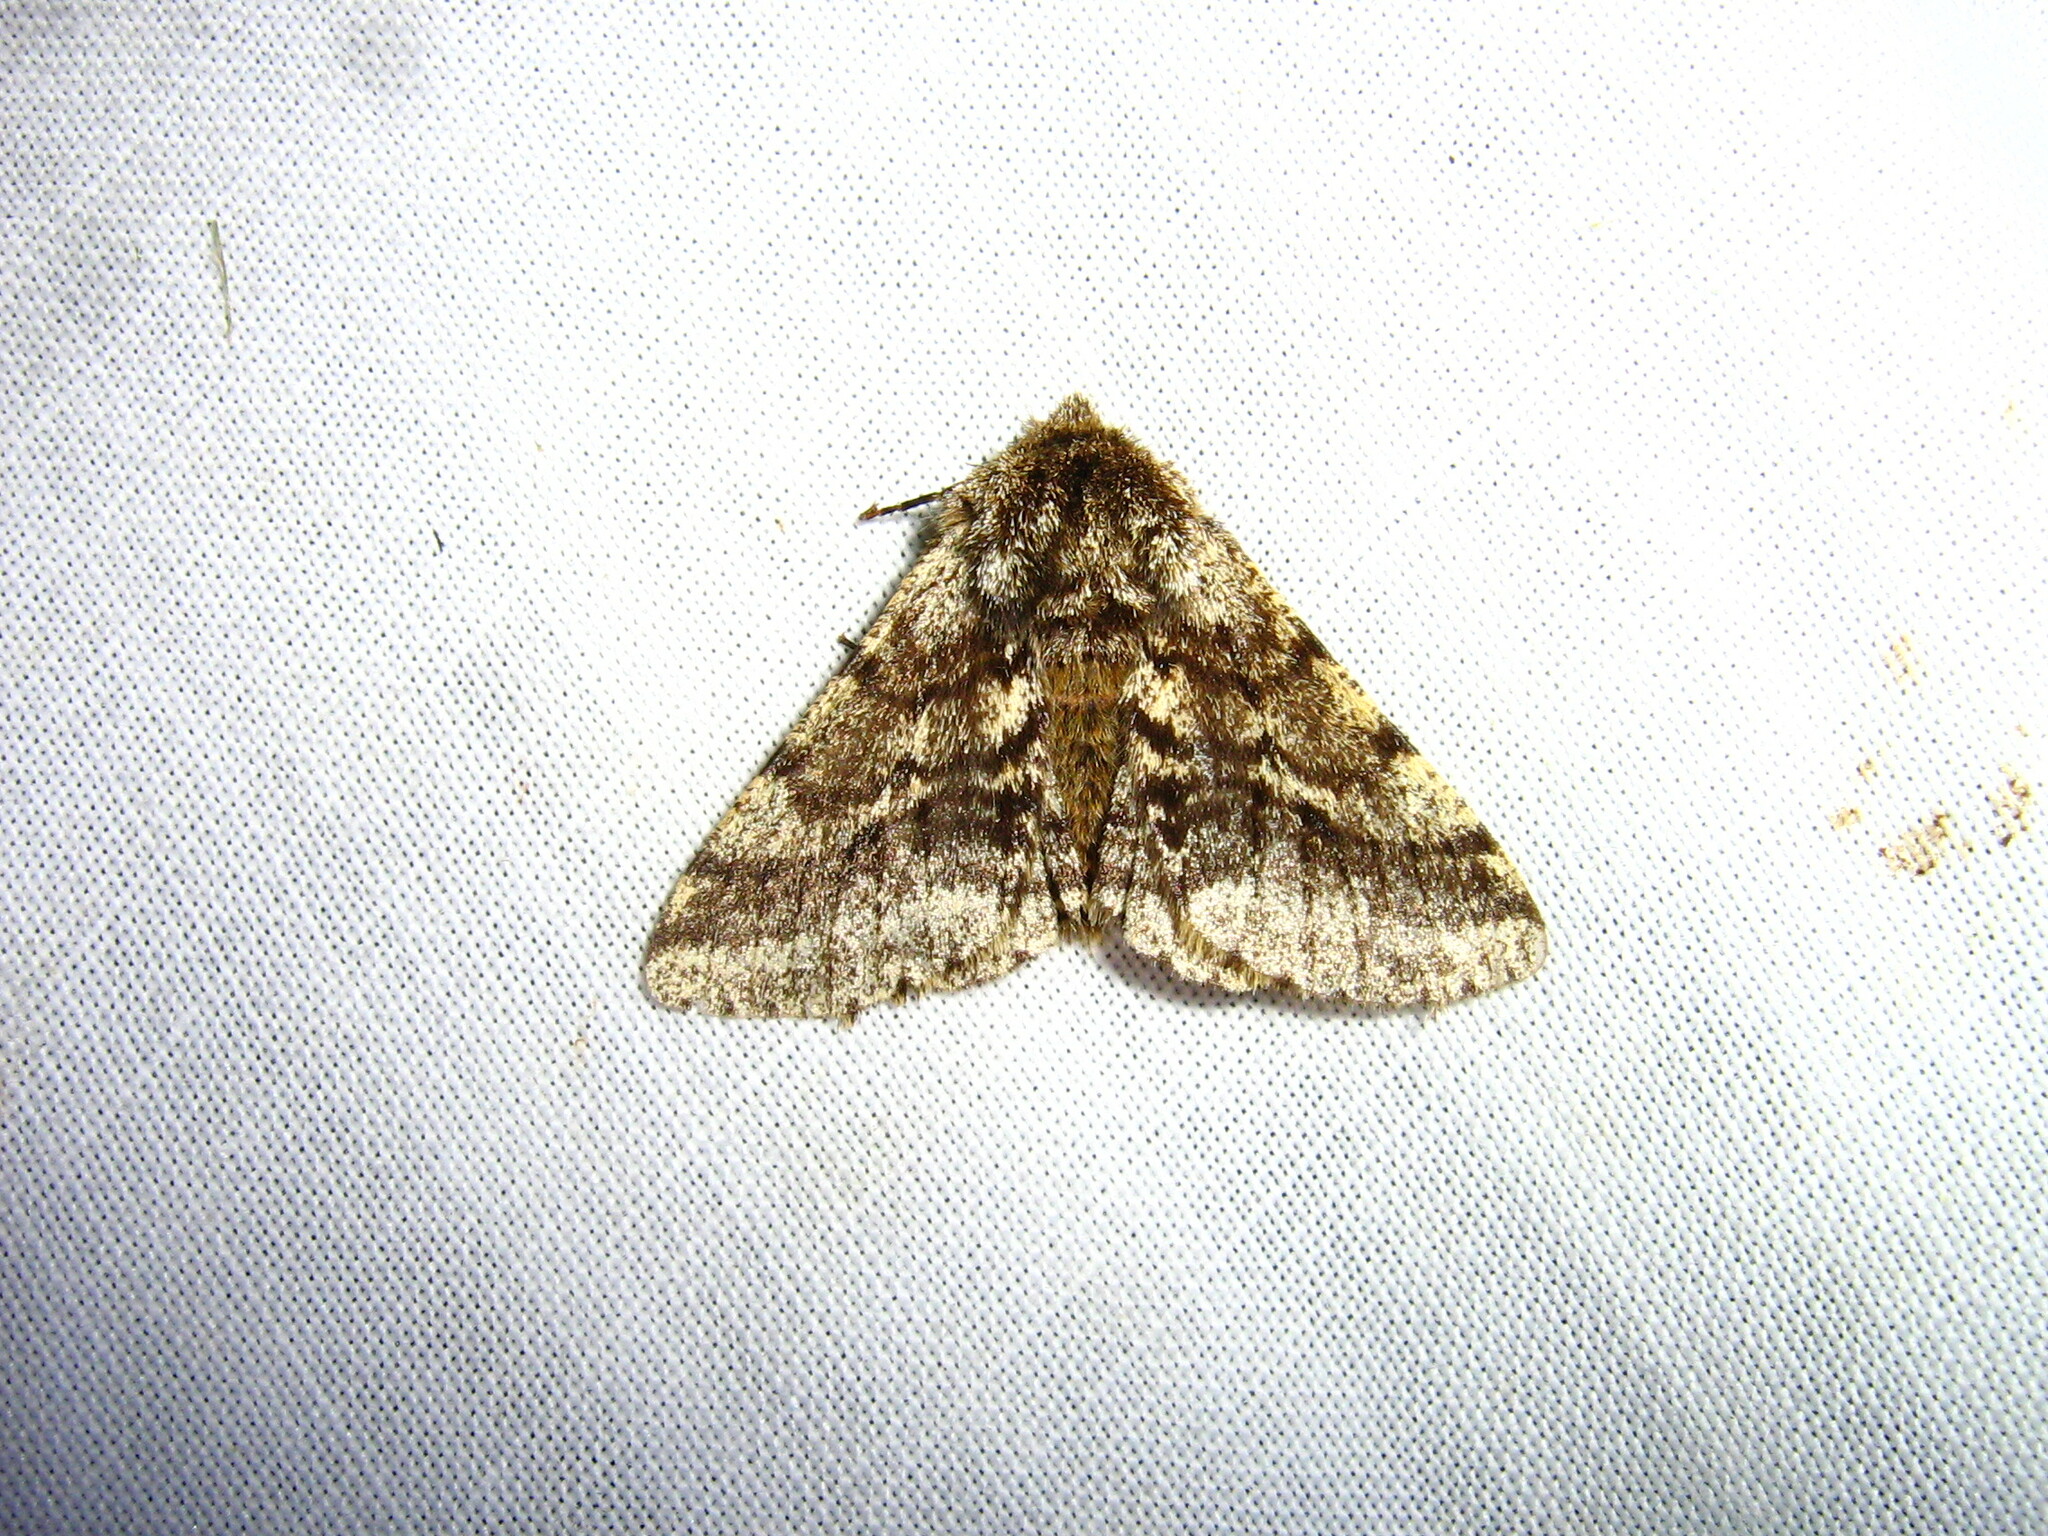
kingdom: Animalia
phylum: Arthropoda
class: Insecta
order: Lepidoptera
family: Geometridae
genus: Lycia
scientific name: Lycia hirtaria
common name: Brindled beauty
